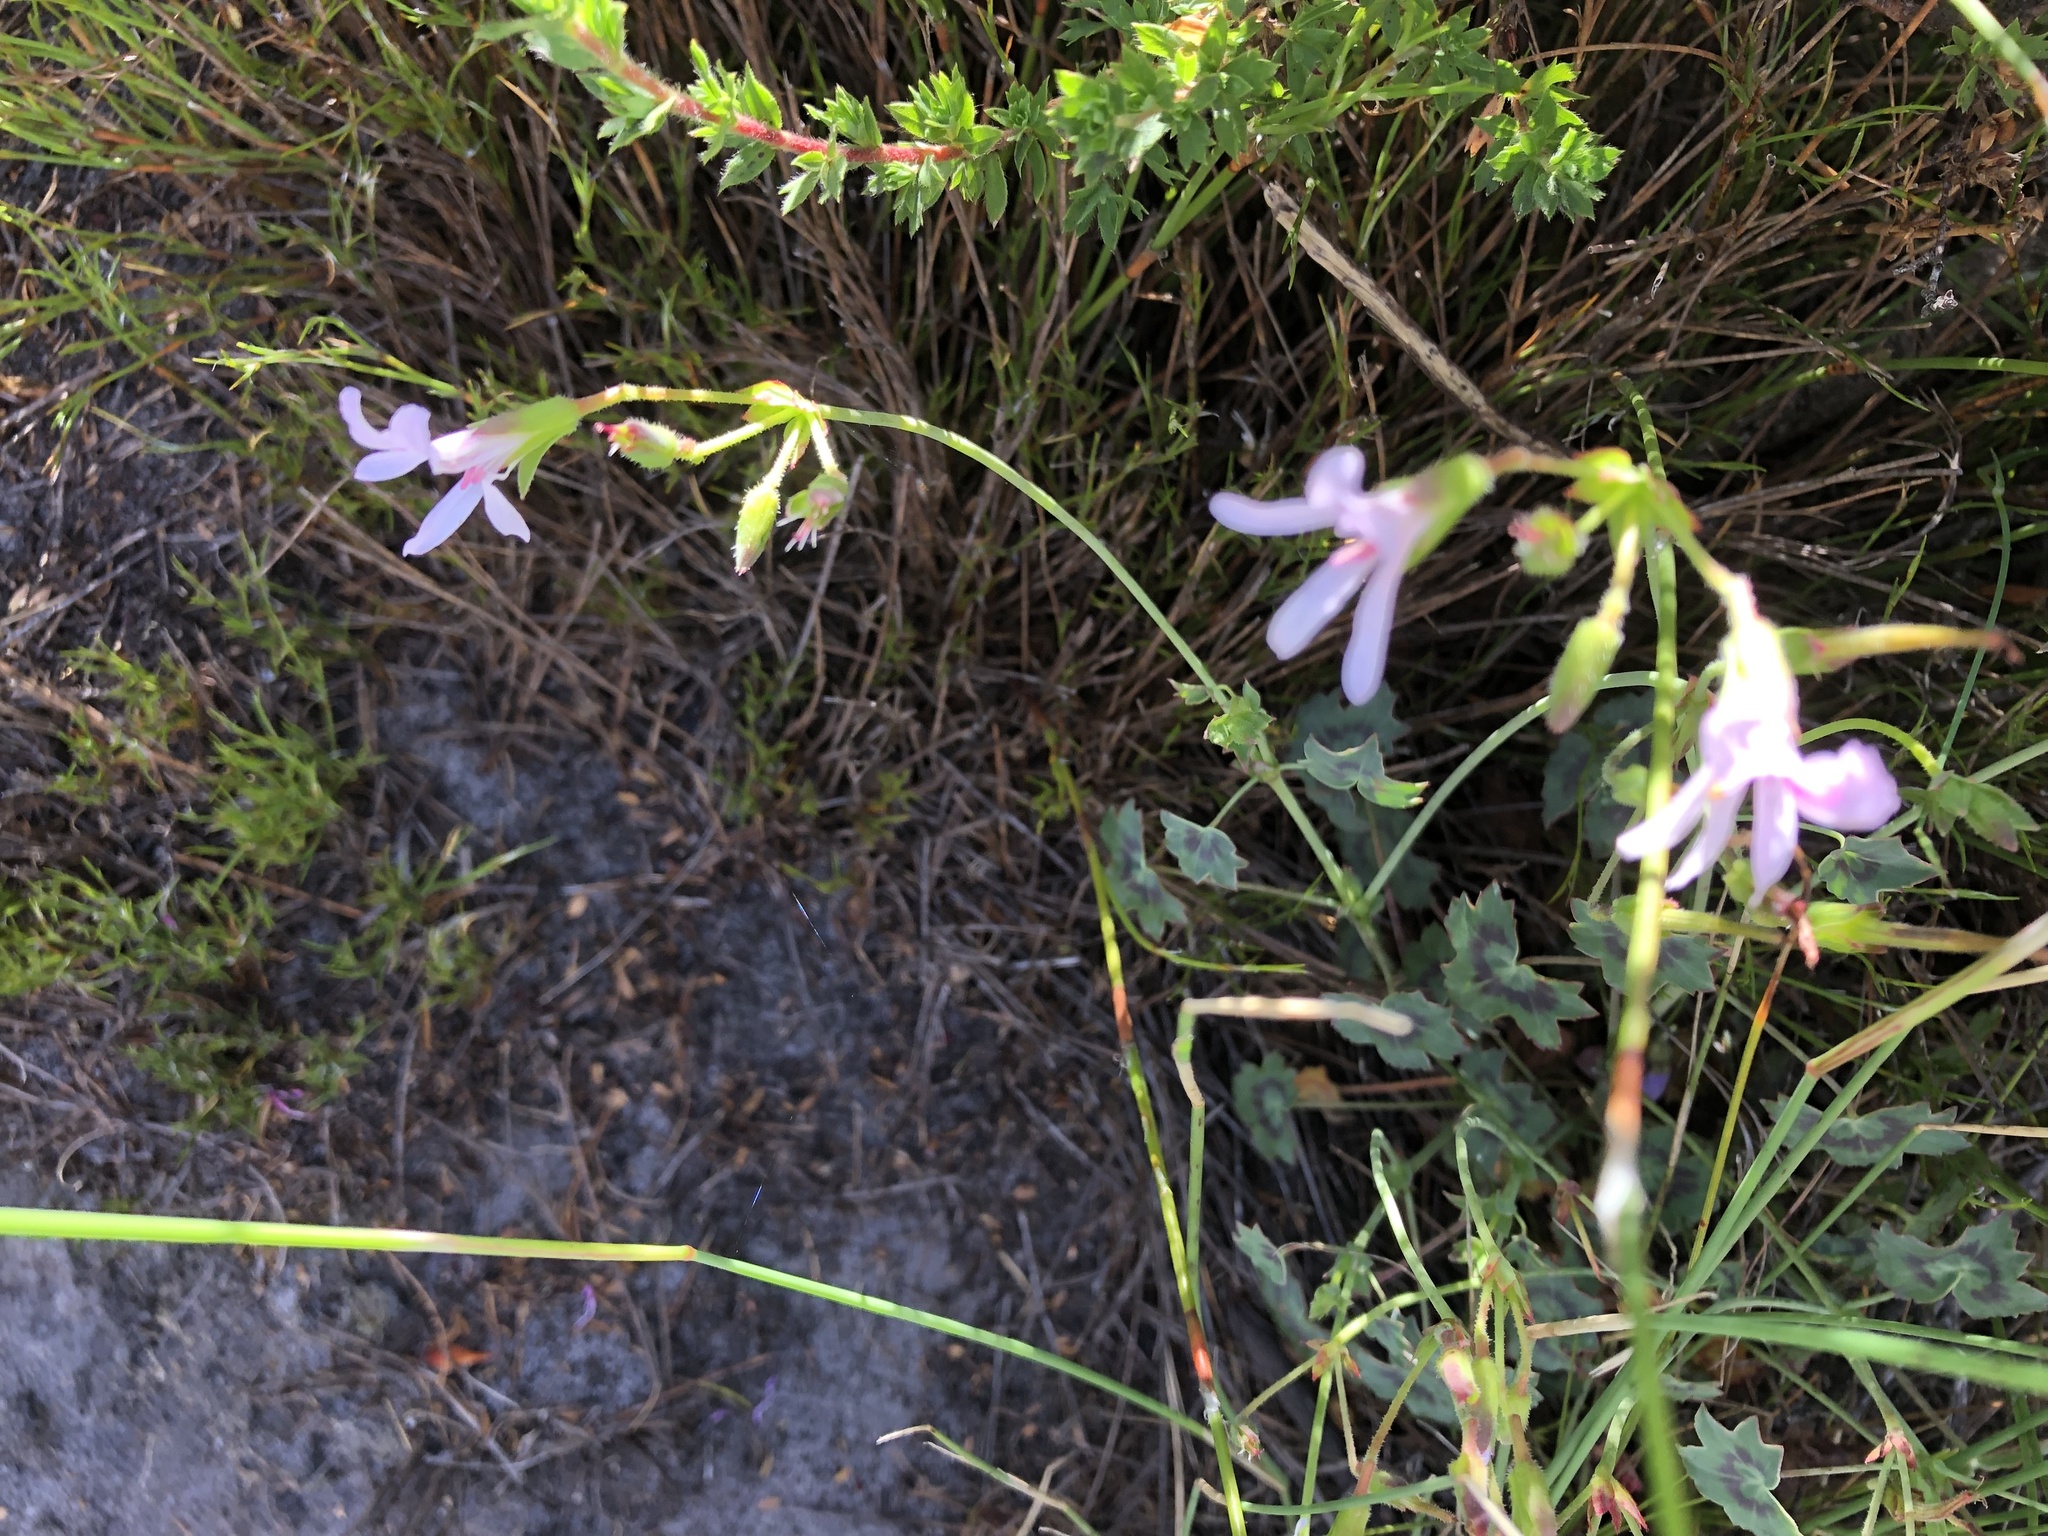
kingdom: Plantae
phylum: Tracheophyta
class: Magnoliopsida
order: Geraniales
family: Geraniaceae
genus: Pelargonium
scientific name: Pelargonium tabulare
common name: Table mountain pelargonium
